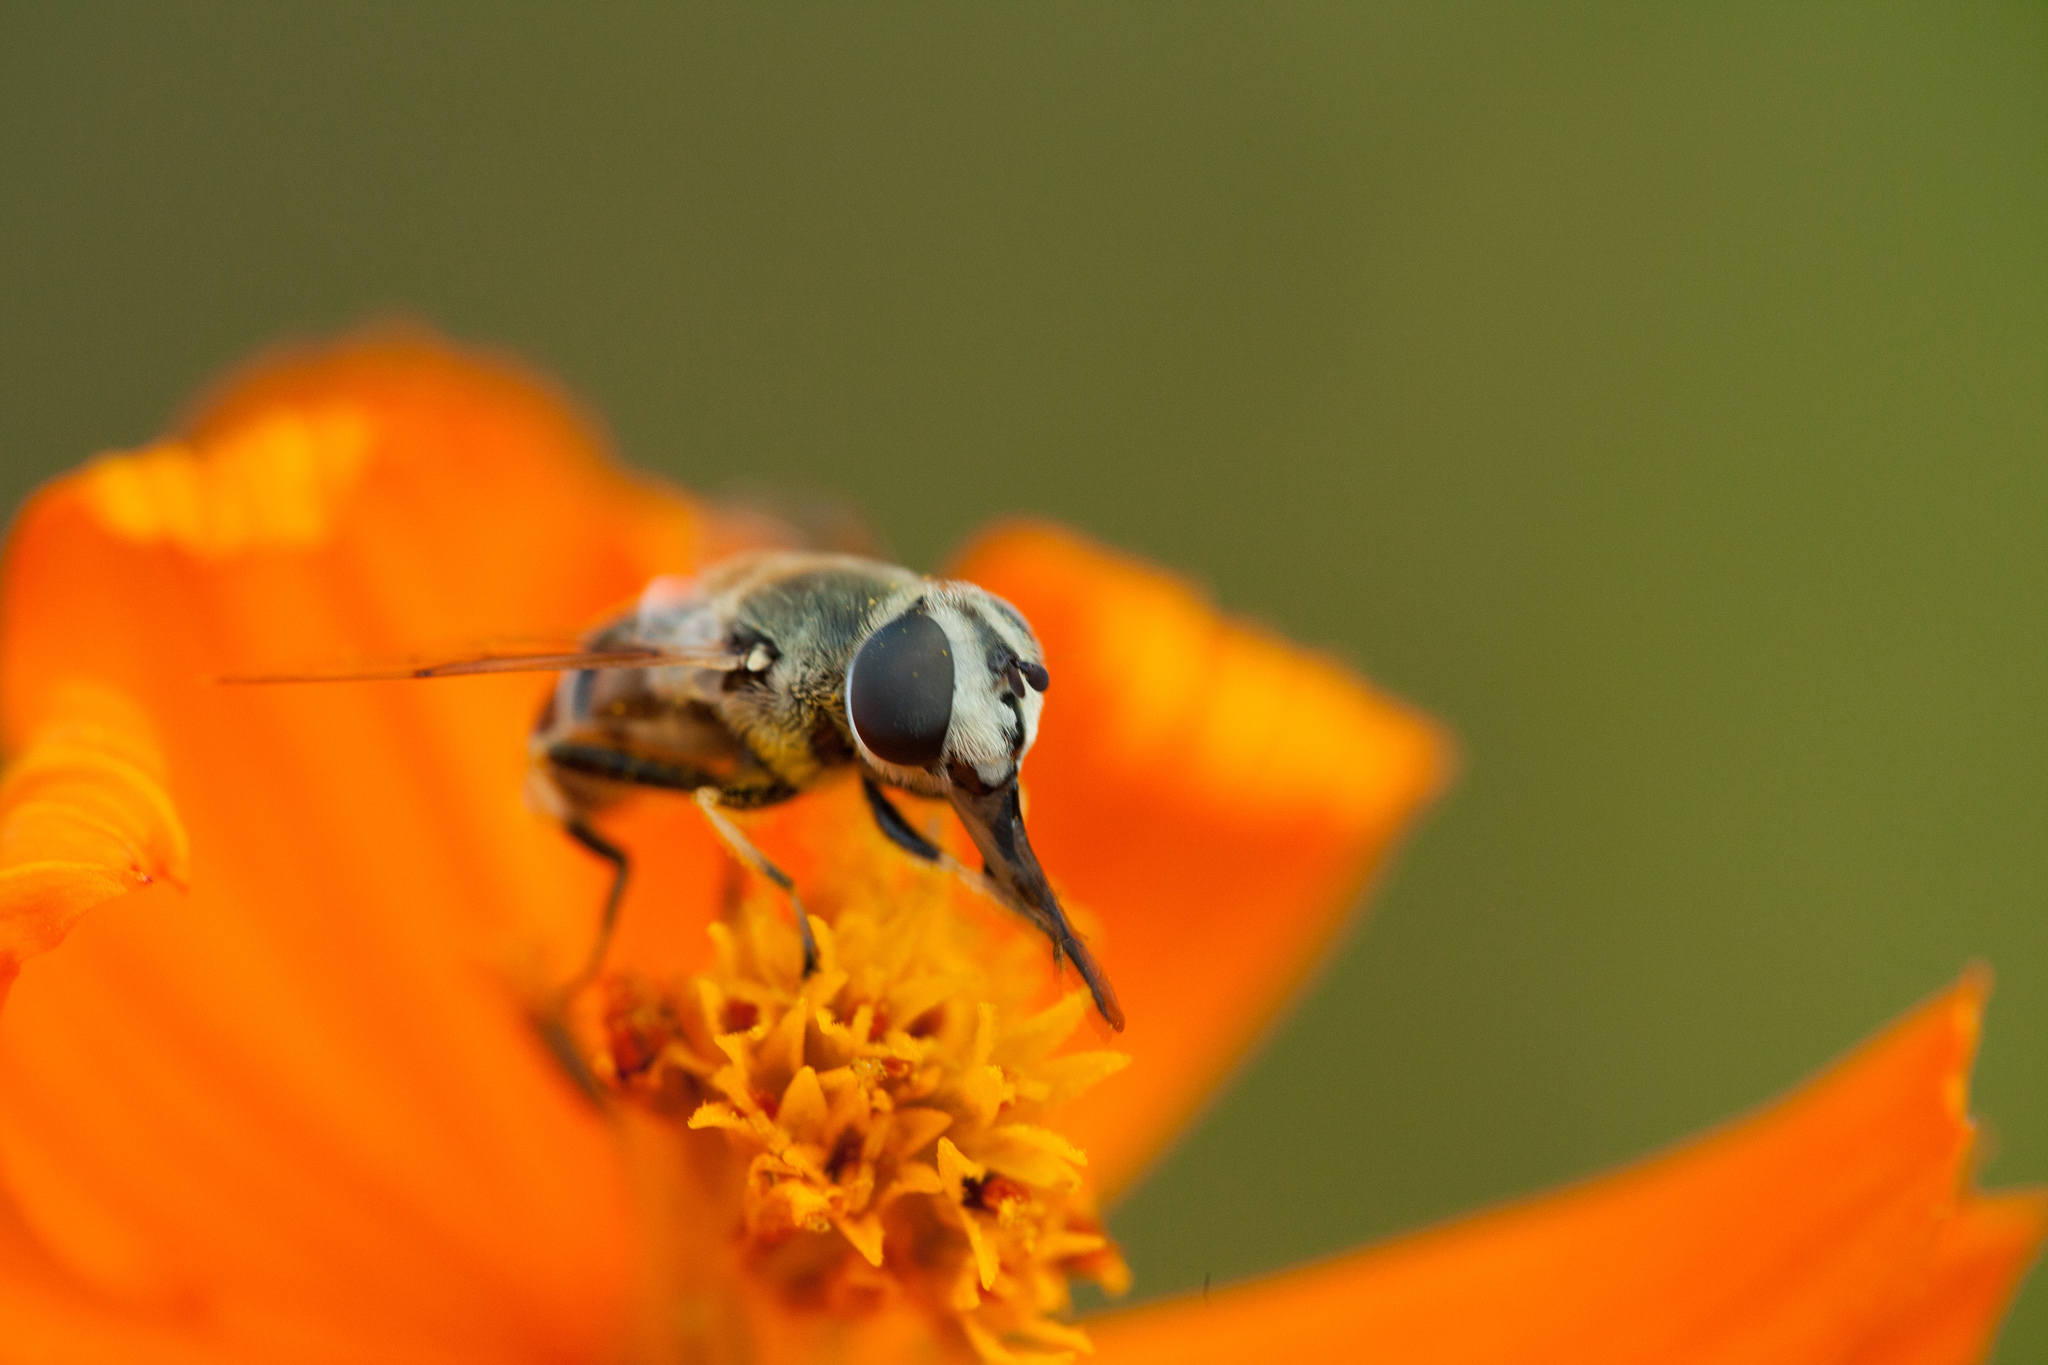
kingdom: Animalia
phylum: Arthropoda
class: Insecta
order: Diptera
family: Syrphidae
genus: Eristalis
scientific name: Eristalis stipator
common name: Yellow-shouldered drone fly
